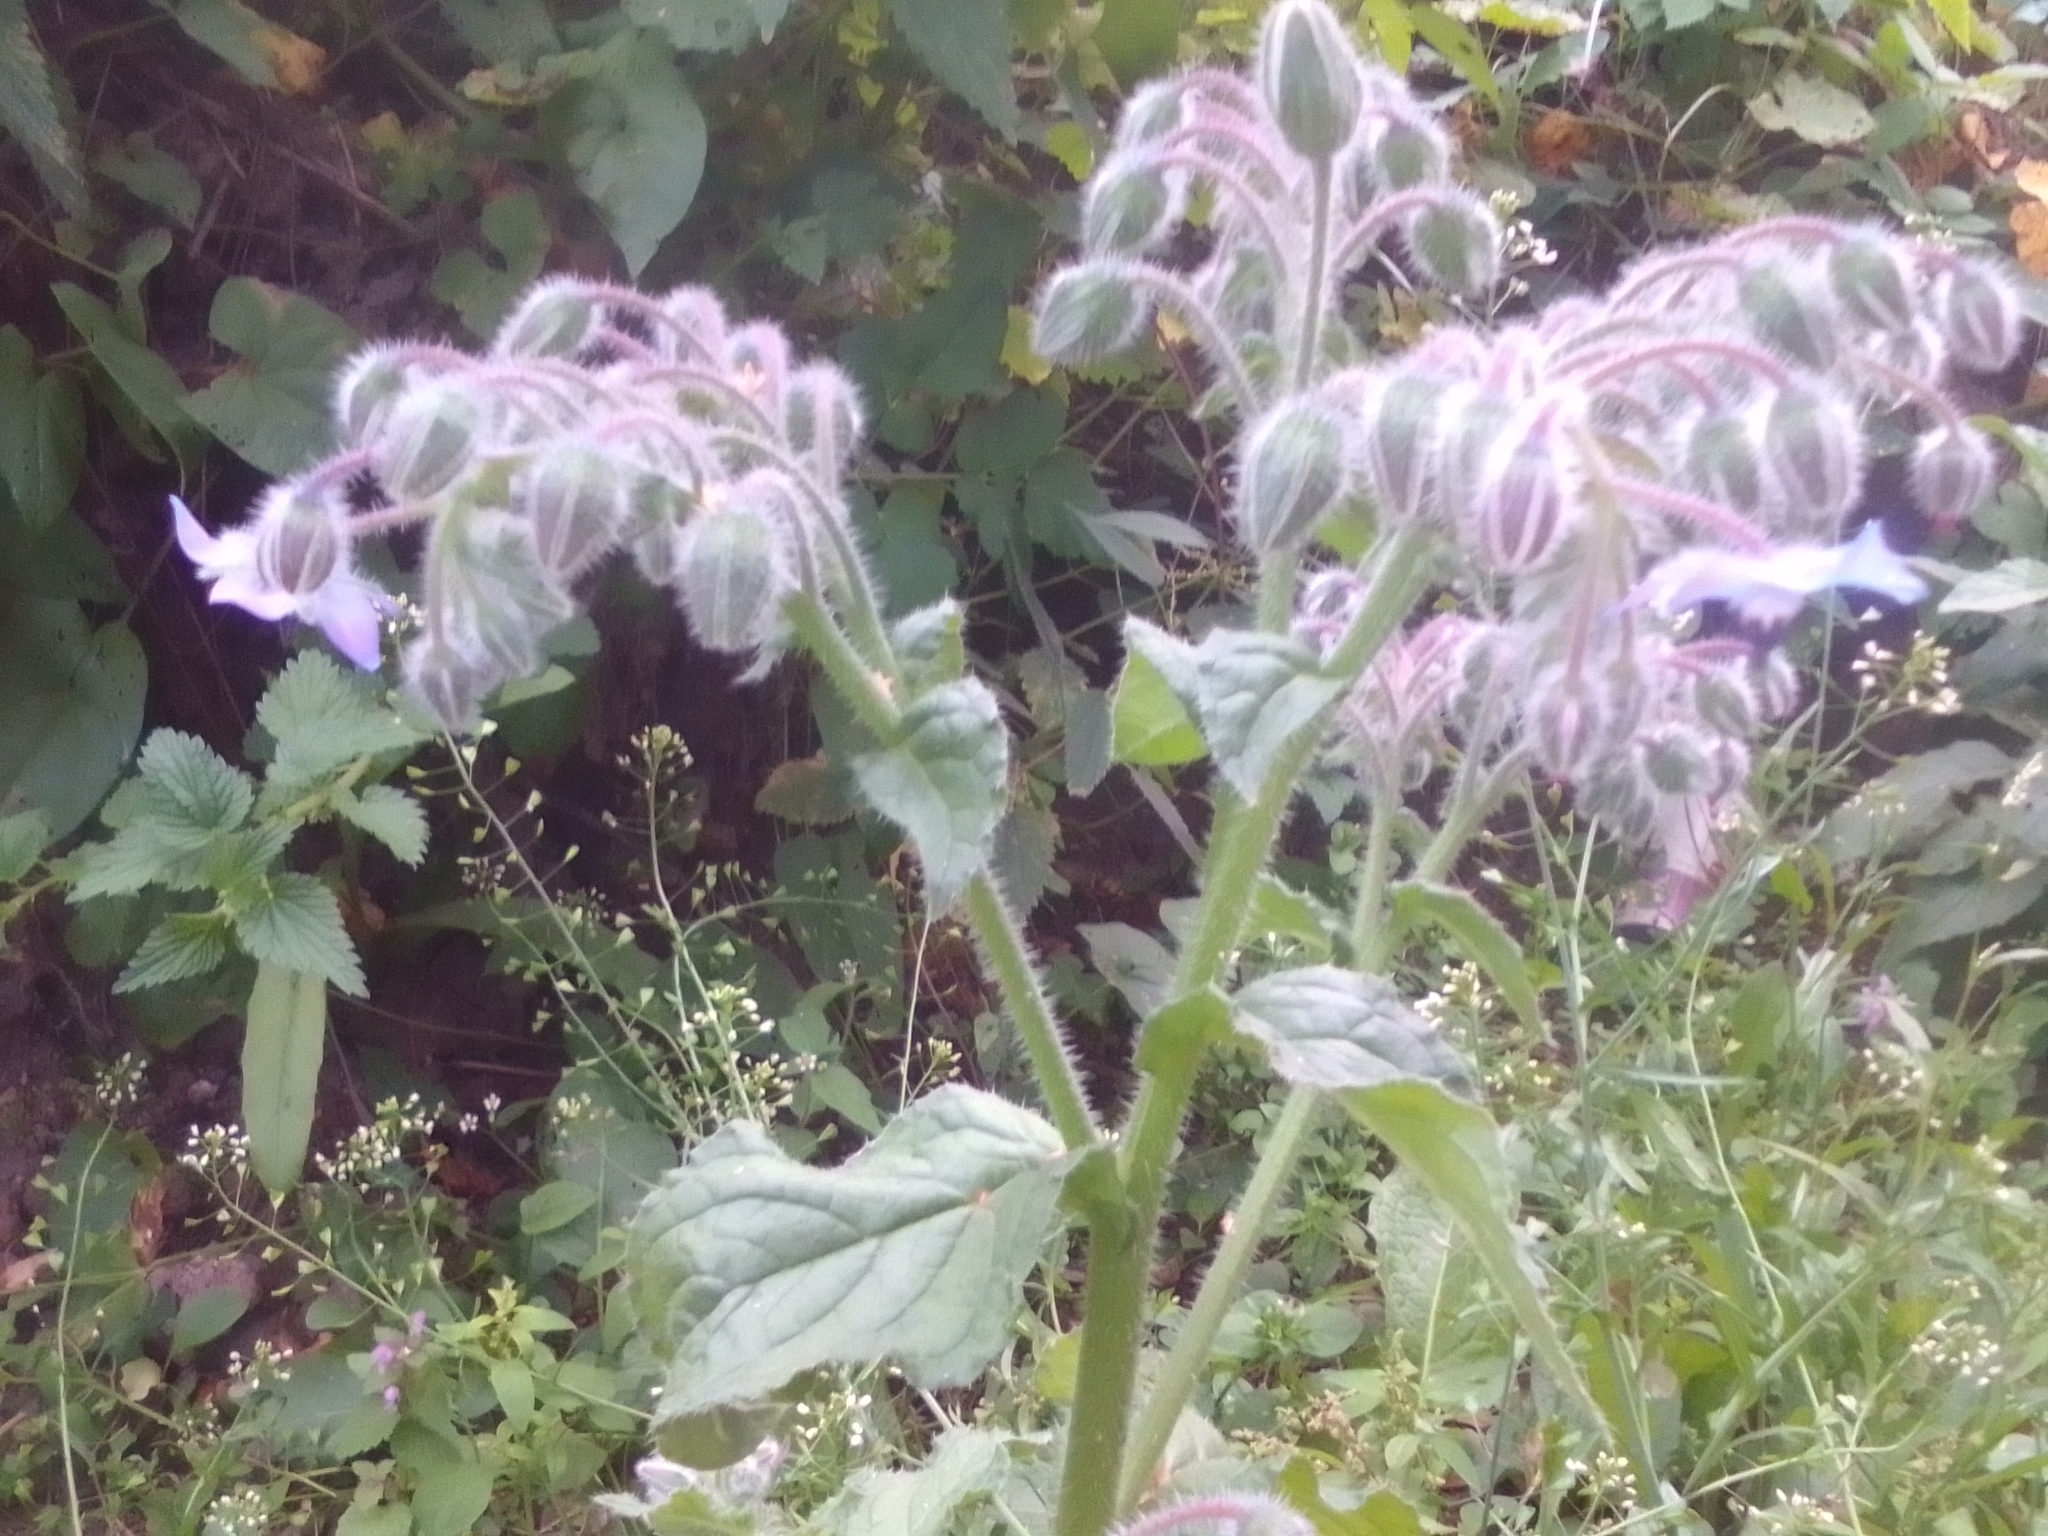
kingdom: Plantae
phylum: Tracheophyta
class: Magnoliopsida
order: Boraginales
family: Boraginaceae
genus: Borago
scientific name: Borago officinalis
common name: Borage
